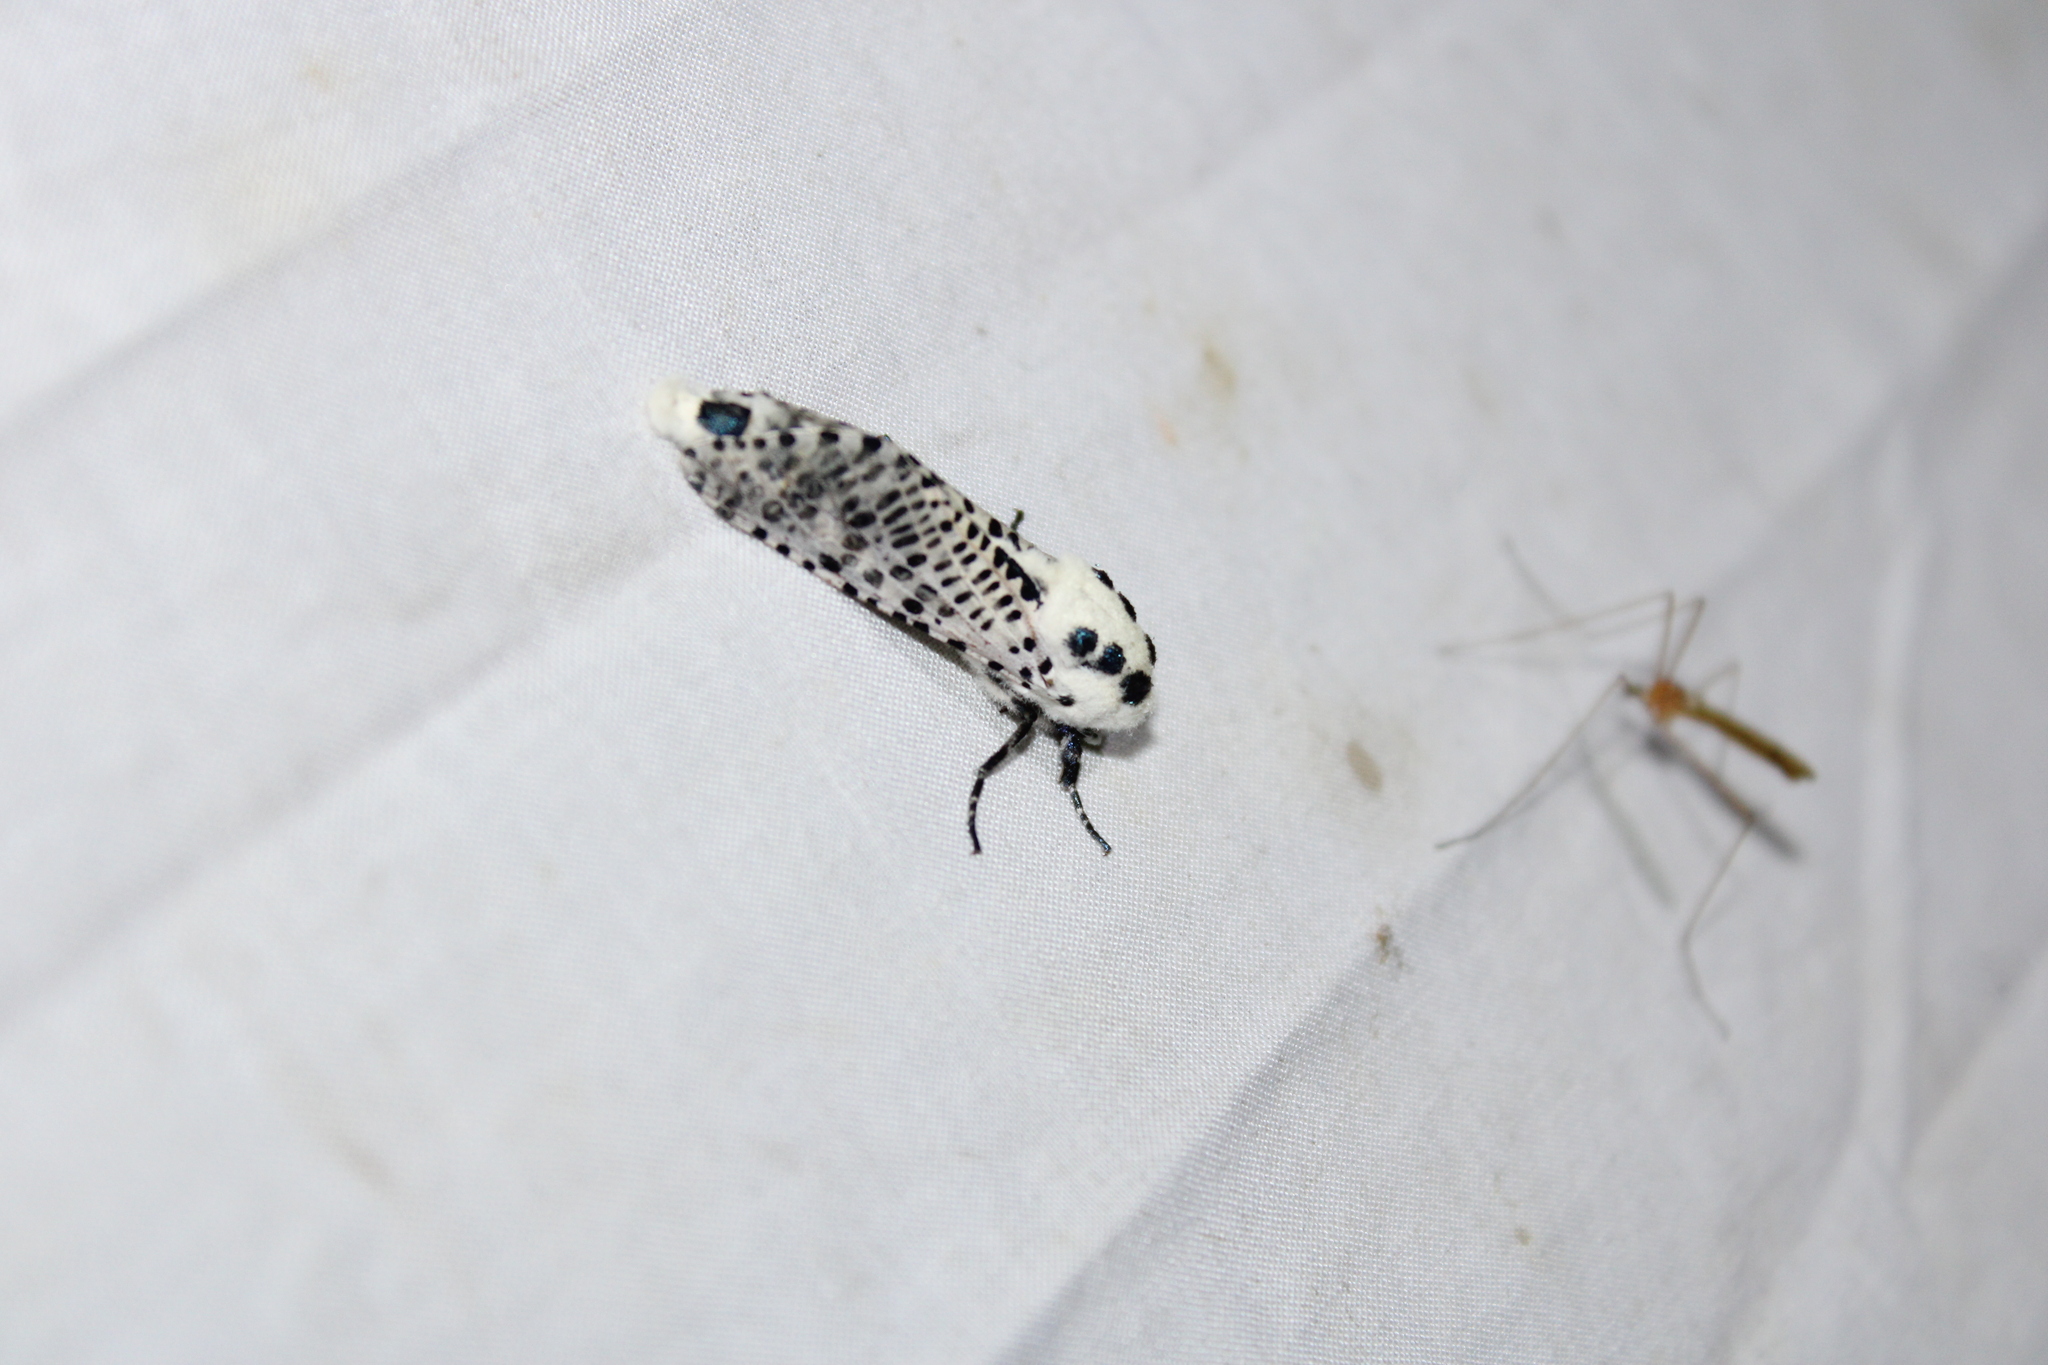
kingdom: Animalia
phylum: Arthropoda
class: Insecta
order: Lepidoptera
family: Cossidae
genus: Zeuzera
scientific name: Zeuzera pyrina
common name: Leopard moth
